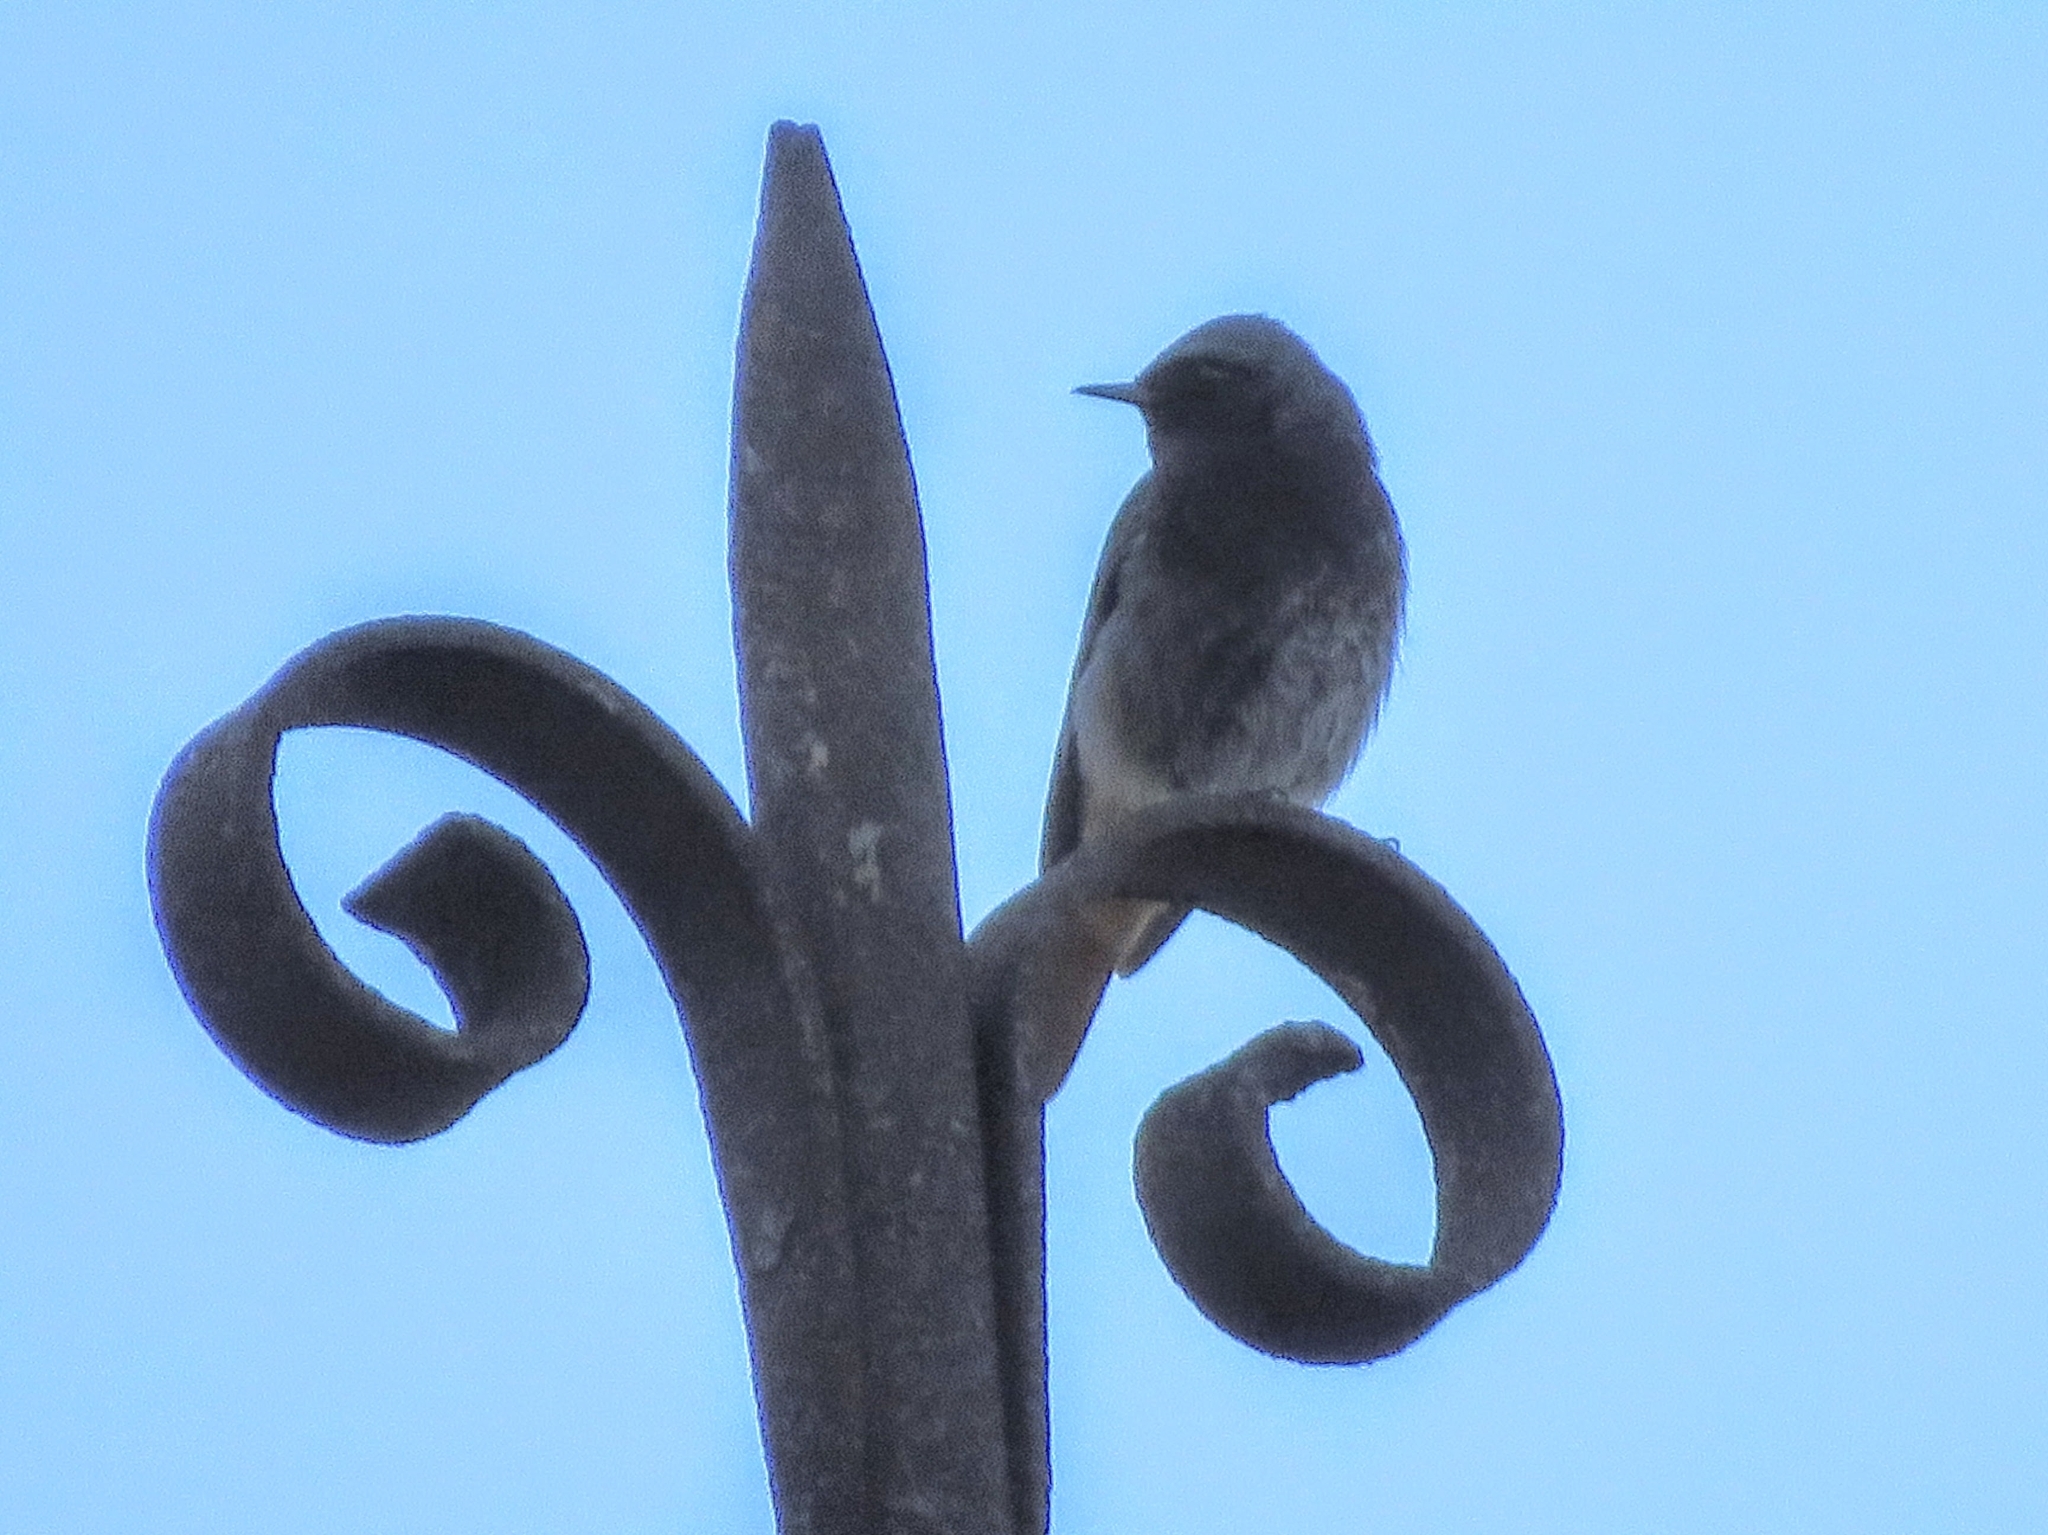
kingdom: Animalia
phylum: Chordata
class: Aves
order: Passeriformes
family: Muscicapidae
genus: Phoenicurus
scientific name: Phoenicurus ochruros
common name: Black redstart
